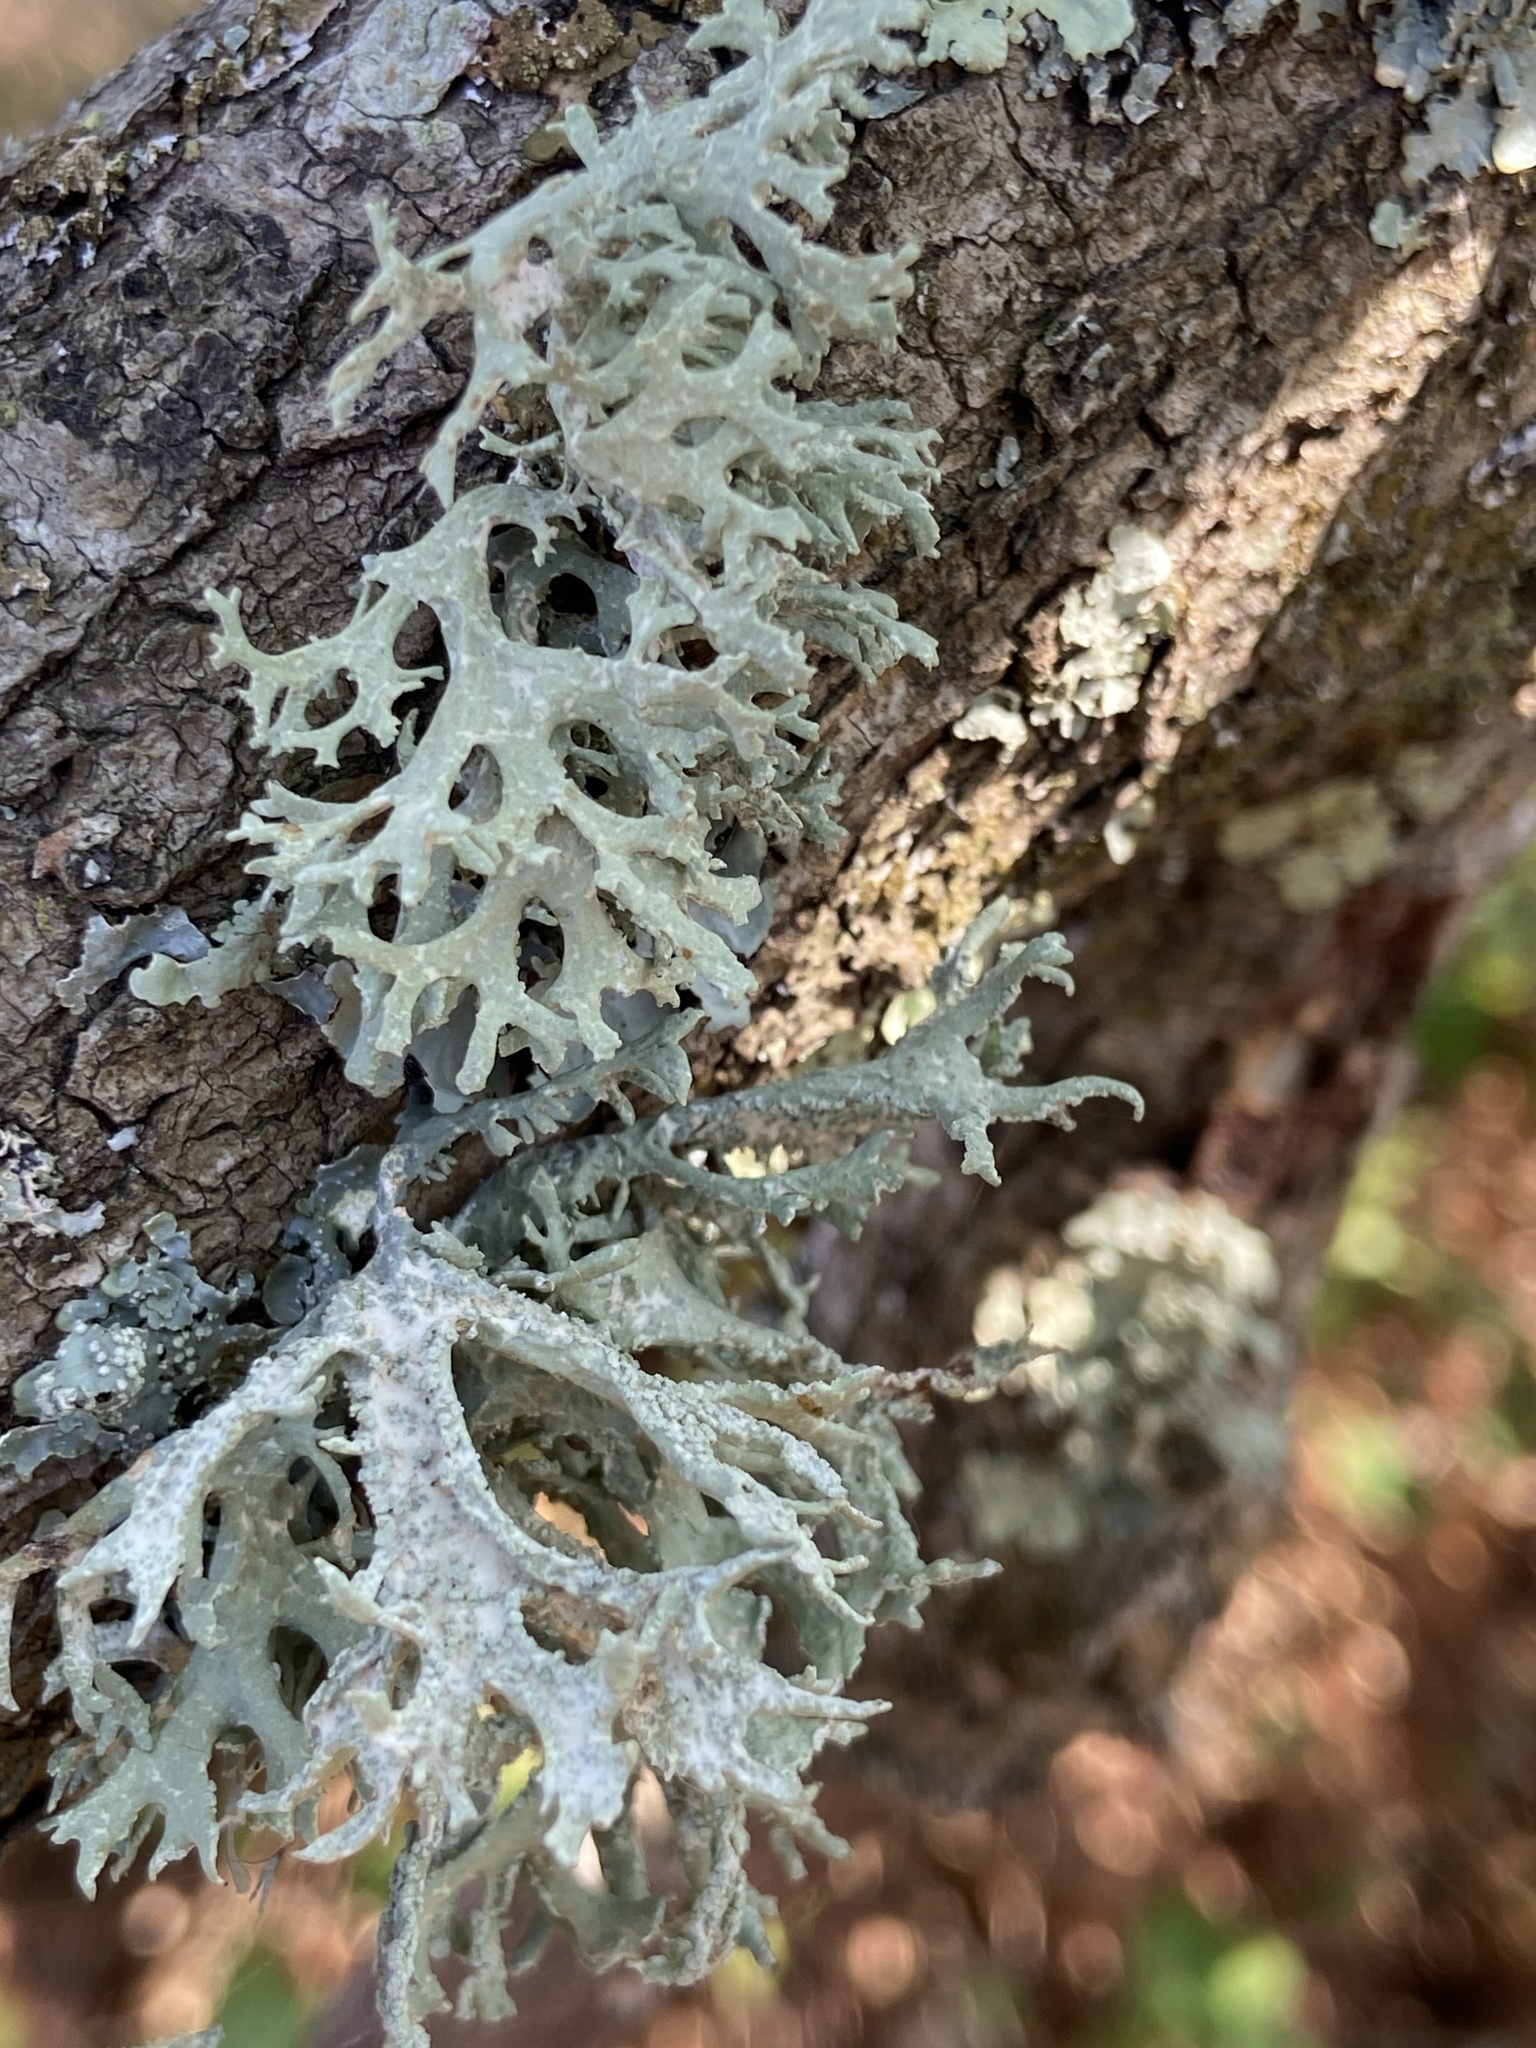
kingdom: Fungi
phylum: Ascomycota
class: Lecanoromycetes
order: Lecanorales
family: Parmeliaceae
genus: Evernia
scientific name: Evernia prunastri
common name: Oak moss
